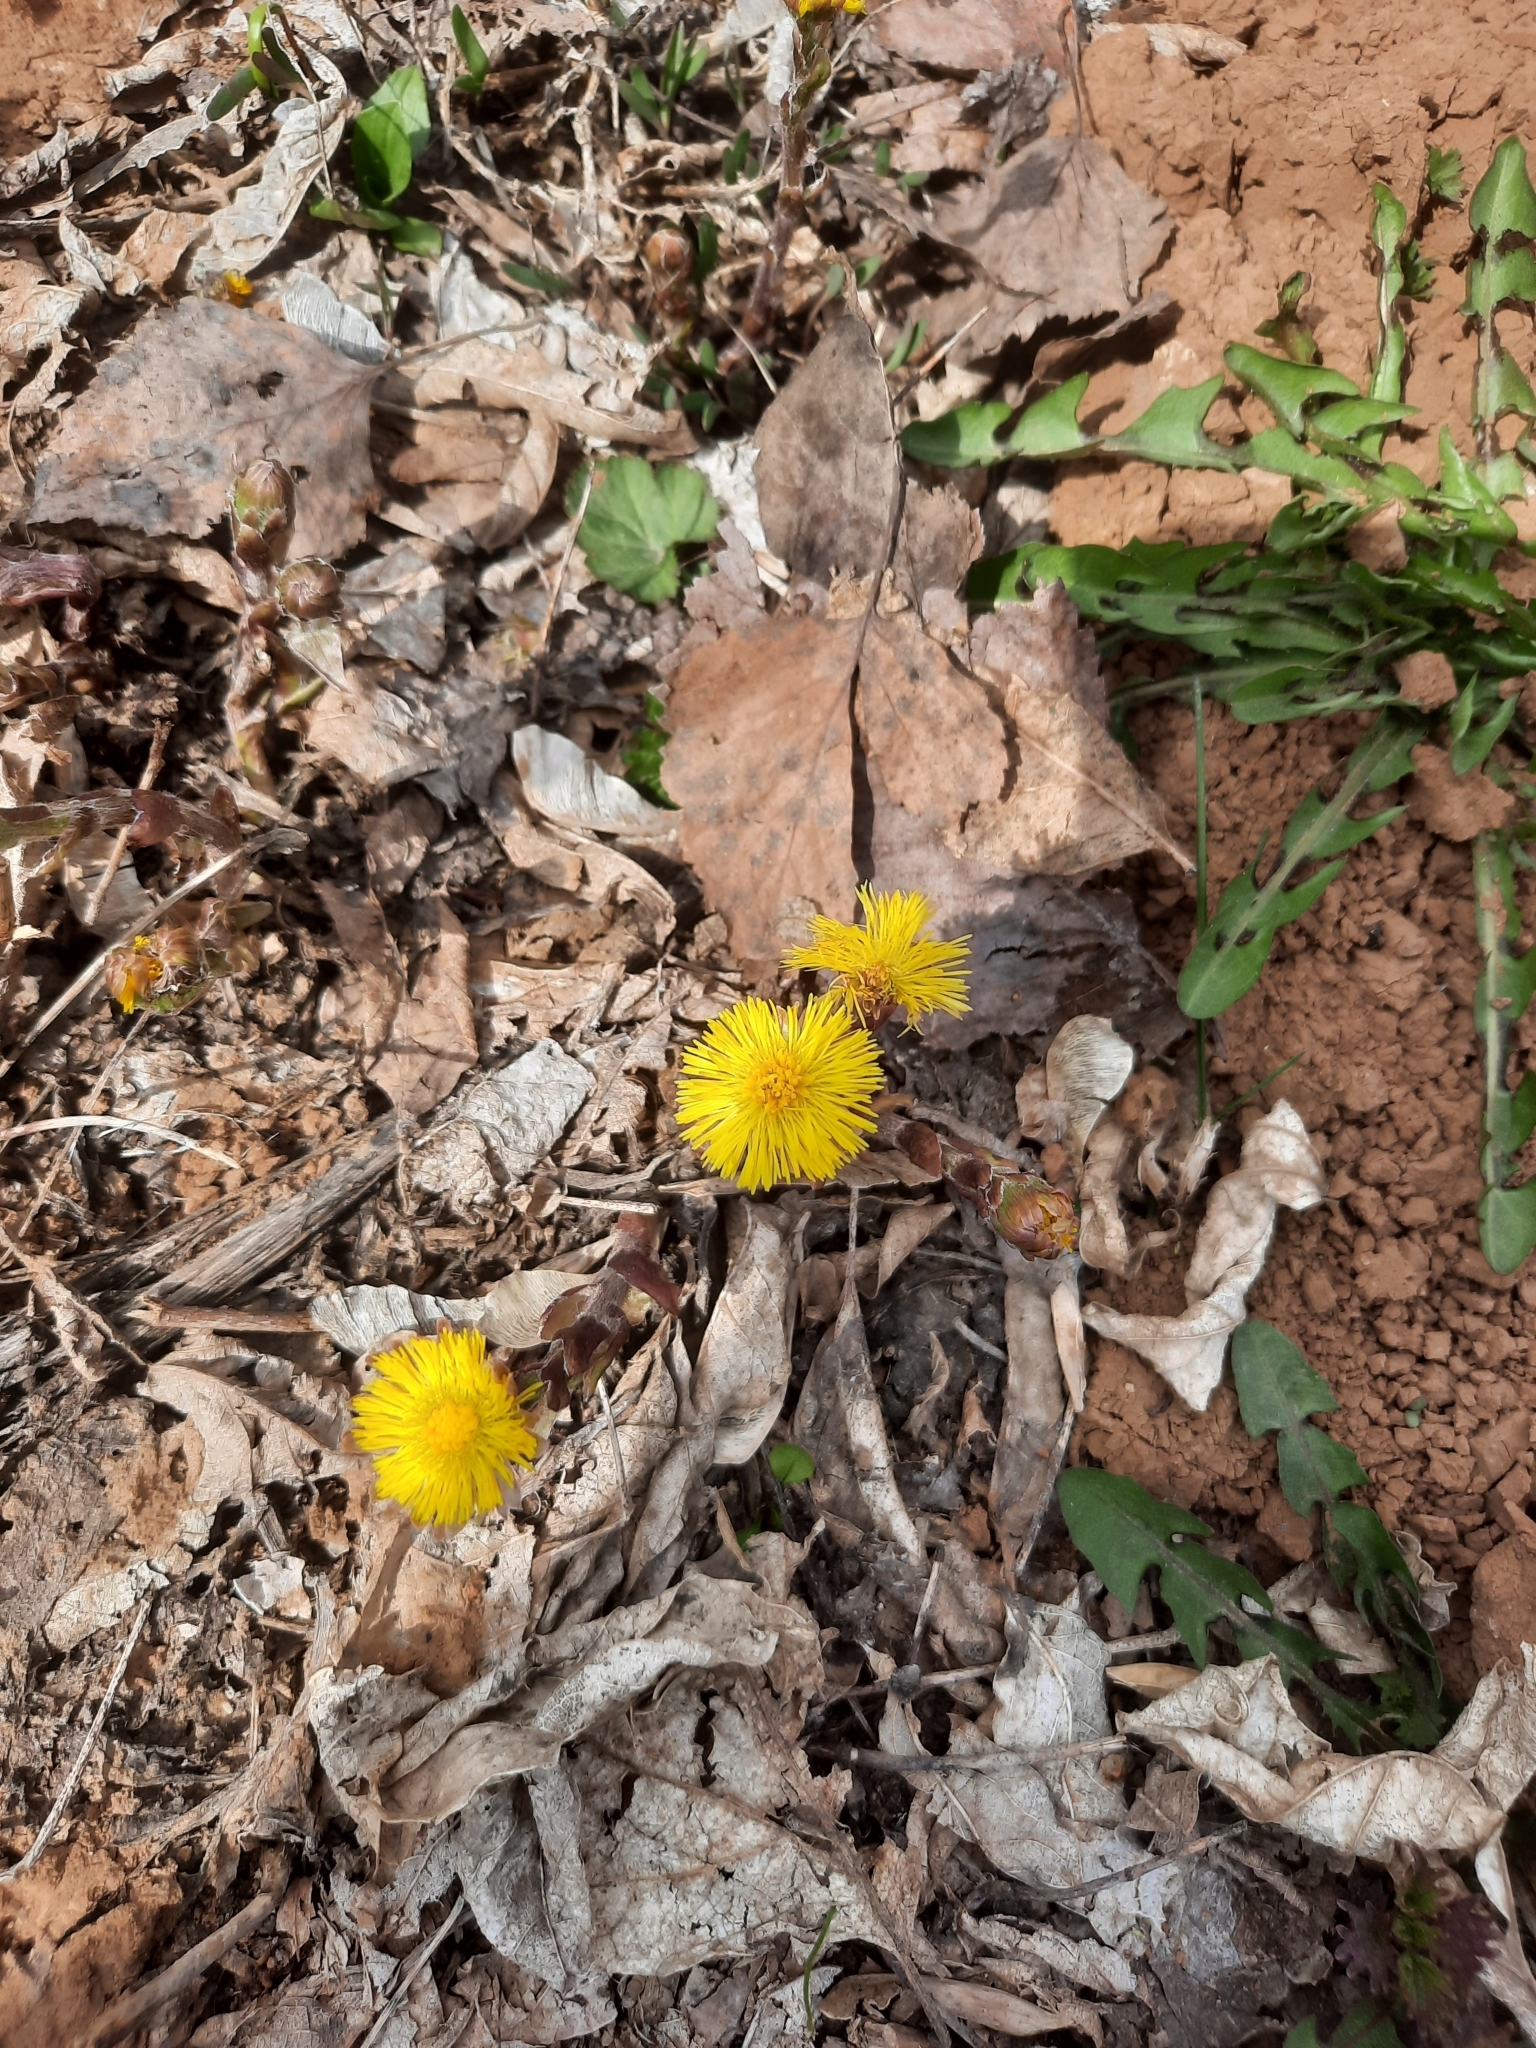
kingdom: Plantae
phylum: Tracheophyta
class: Magnoliopsida
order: Asterales
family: Asteraceae
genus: Tussilago
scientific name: Tussilago farfara
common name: Coltsfoot
